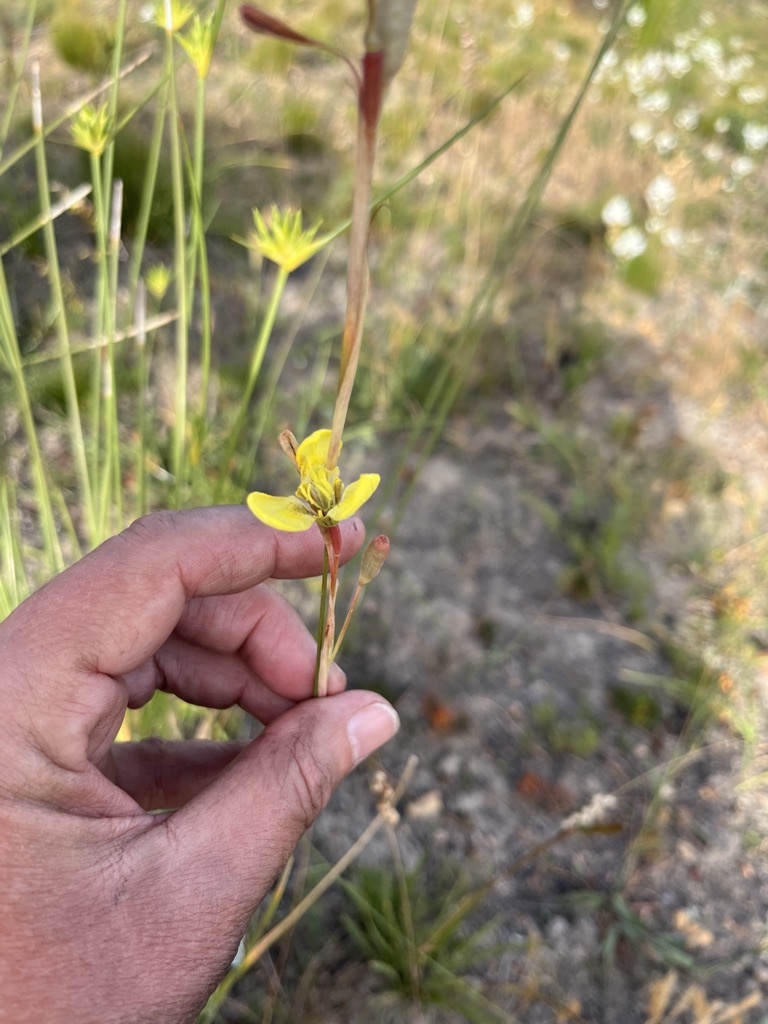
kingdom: Plantae
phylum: Tracheophyta
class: Liliopsida
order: Asparagales
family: Iridaceae
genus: Moraea
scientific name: Moraea bellendenii
